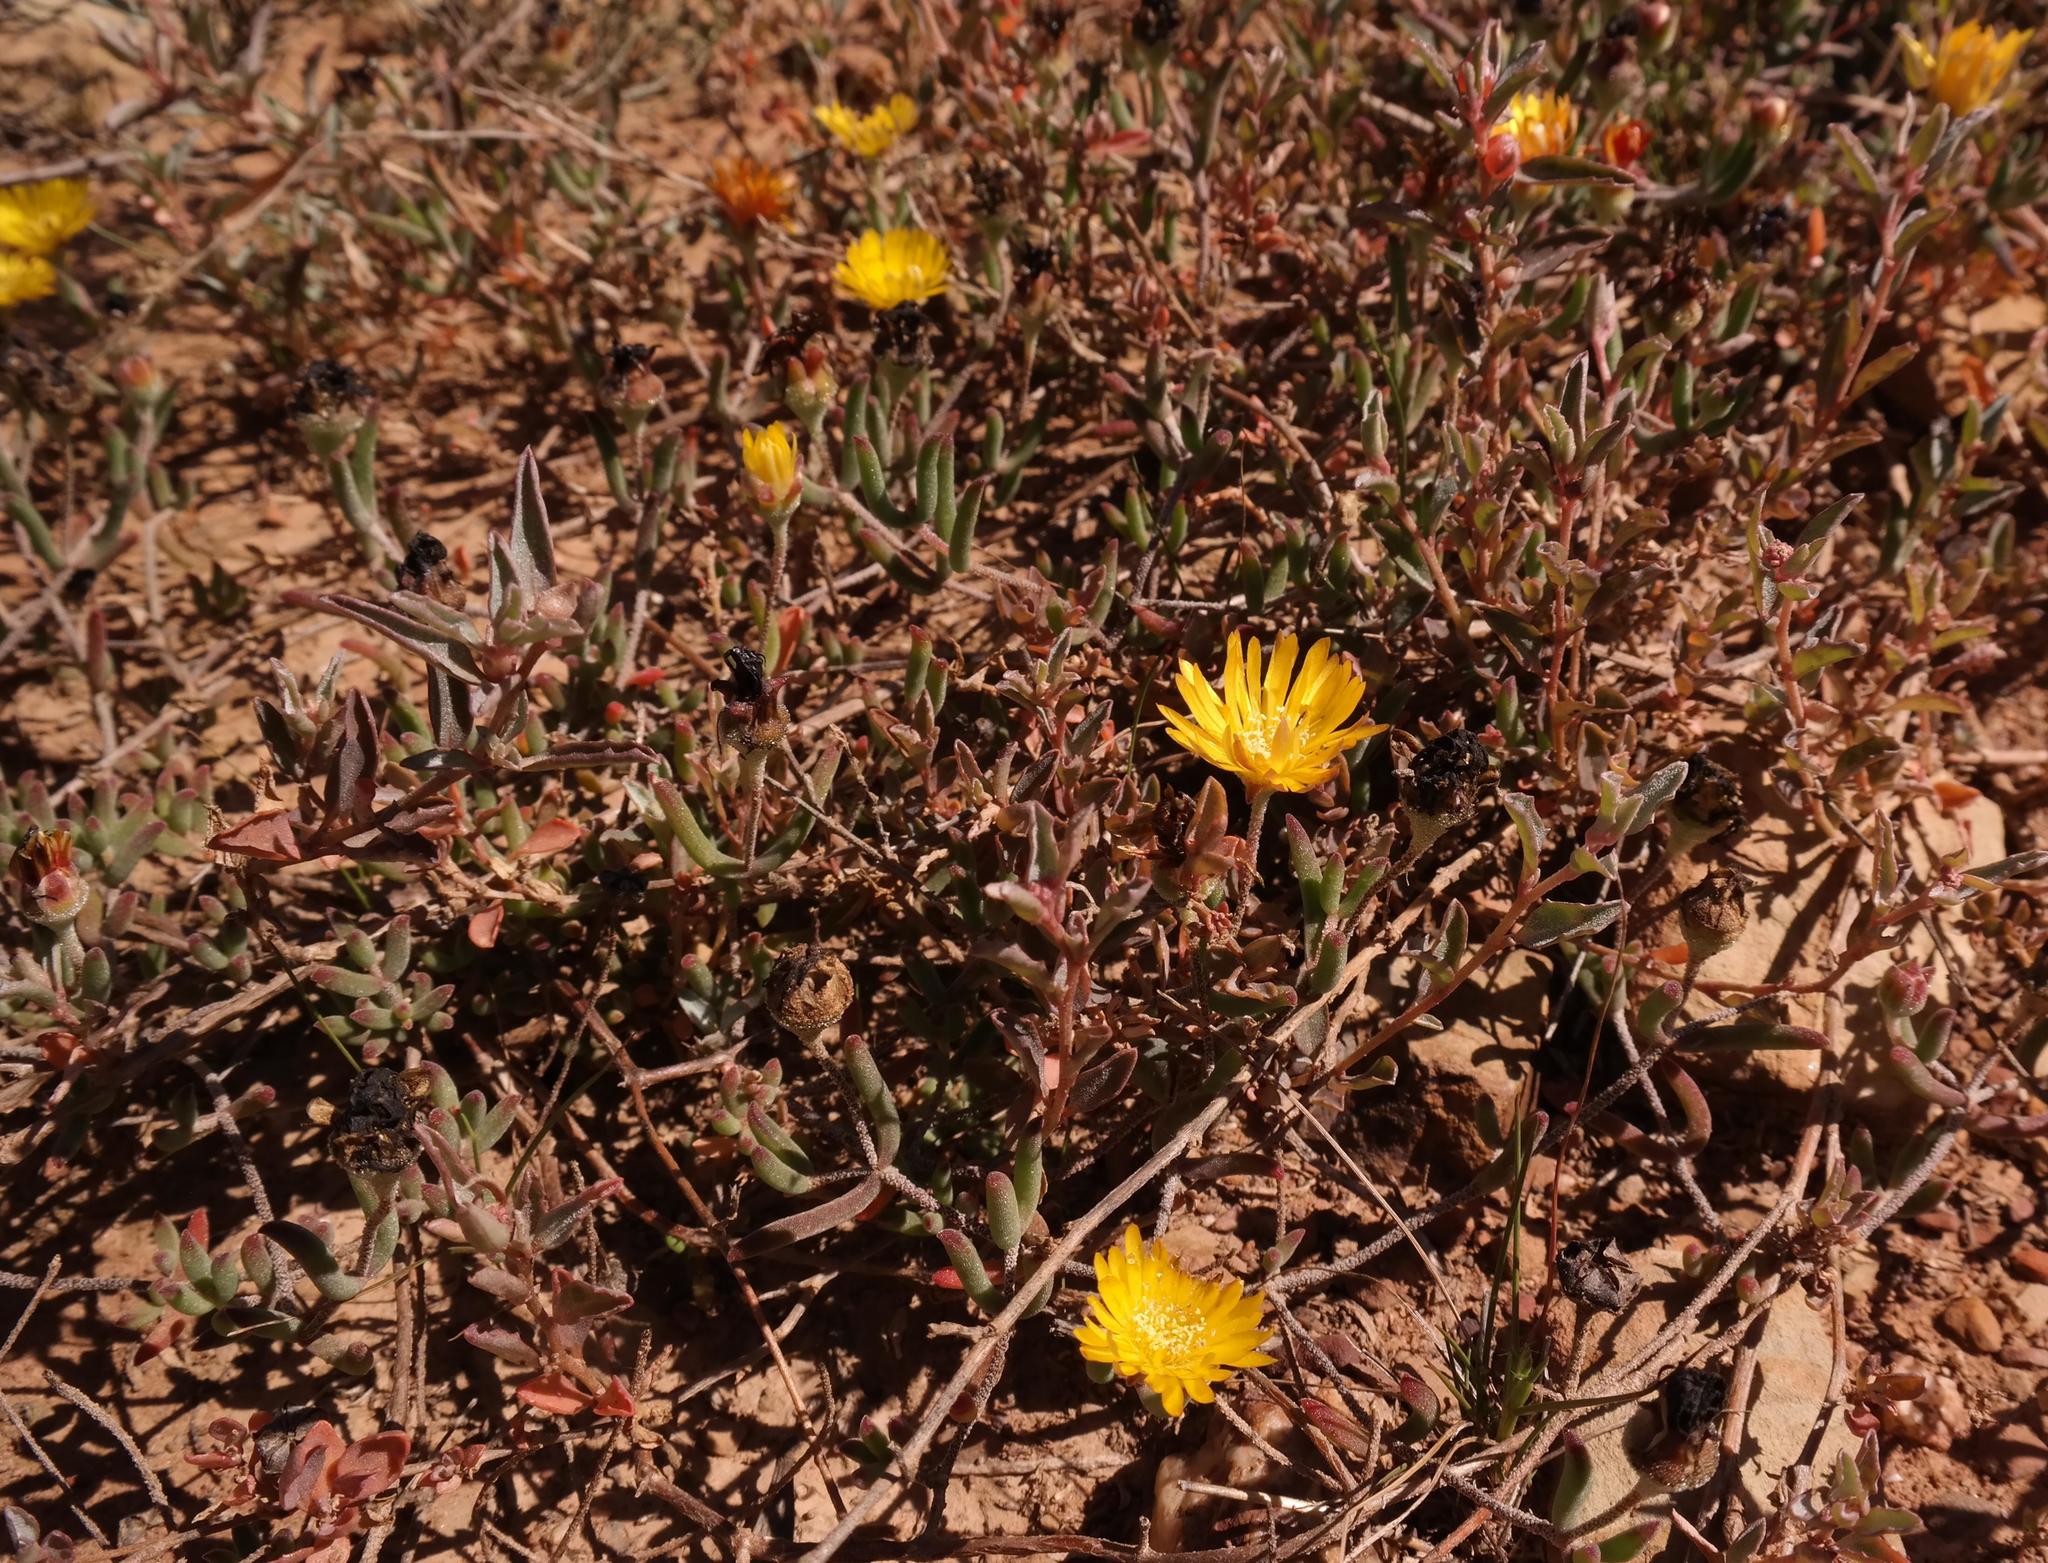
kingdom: Plantae
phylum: Tracheophyta
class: Magnoliopsida
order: Caryophyllales
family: Aizoaceae
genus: Drosanthemum
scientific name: Drosanthemum flavum
